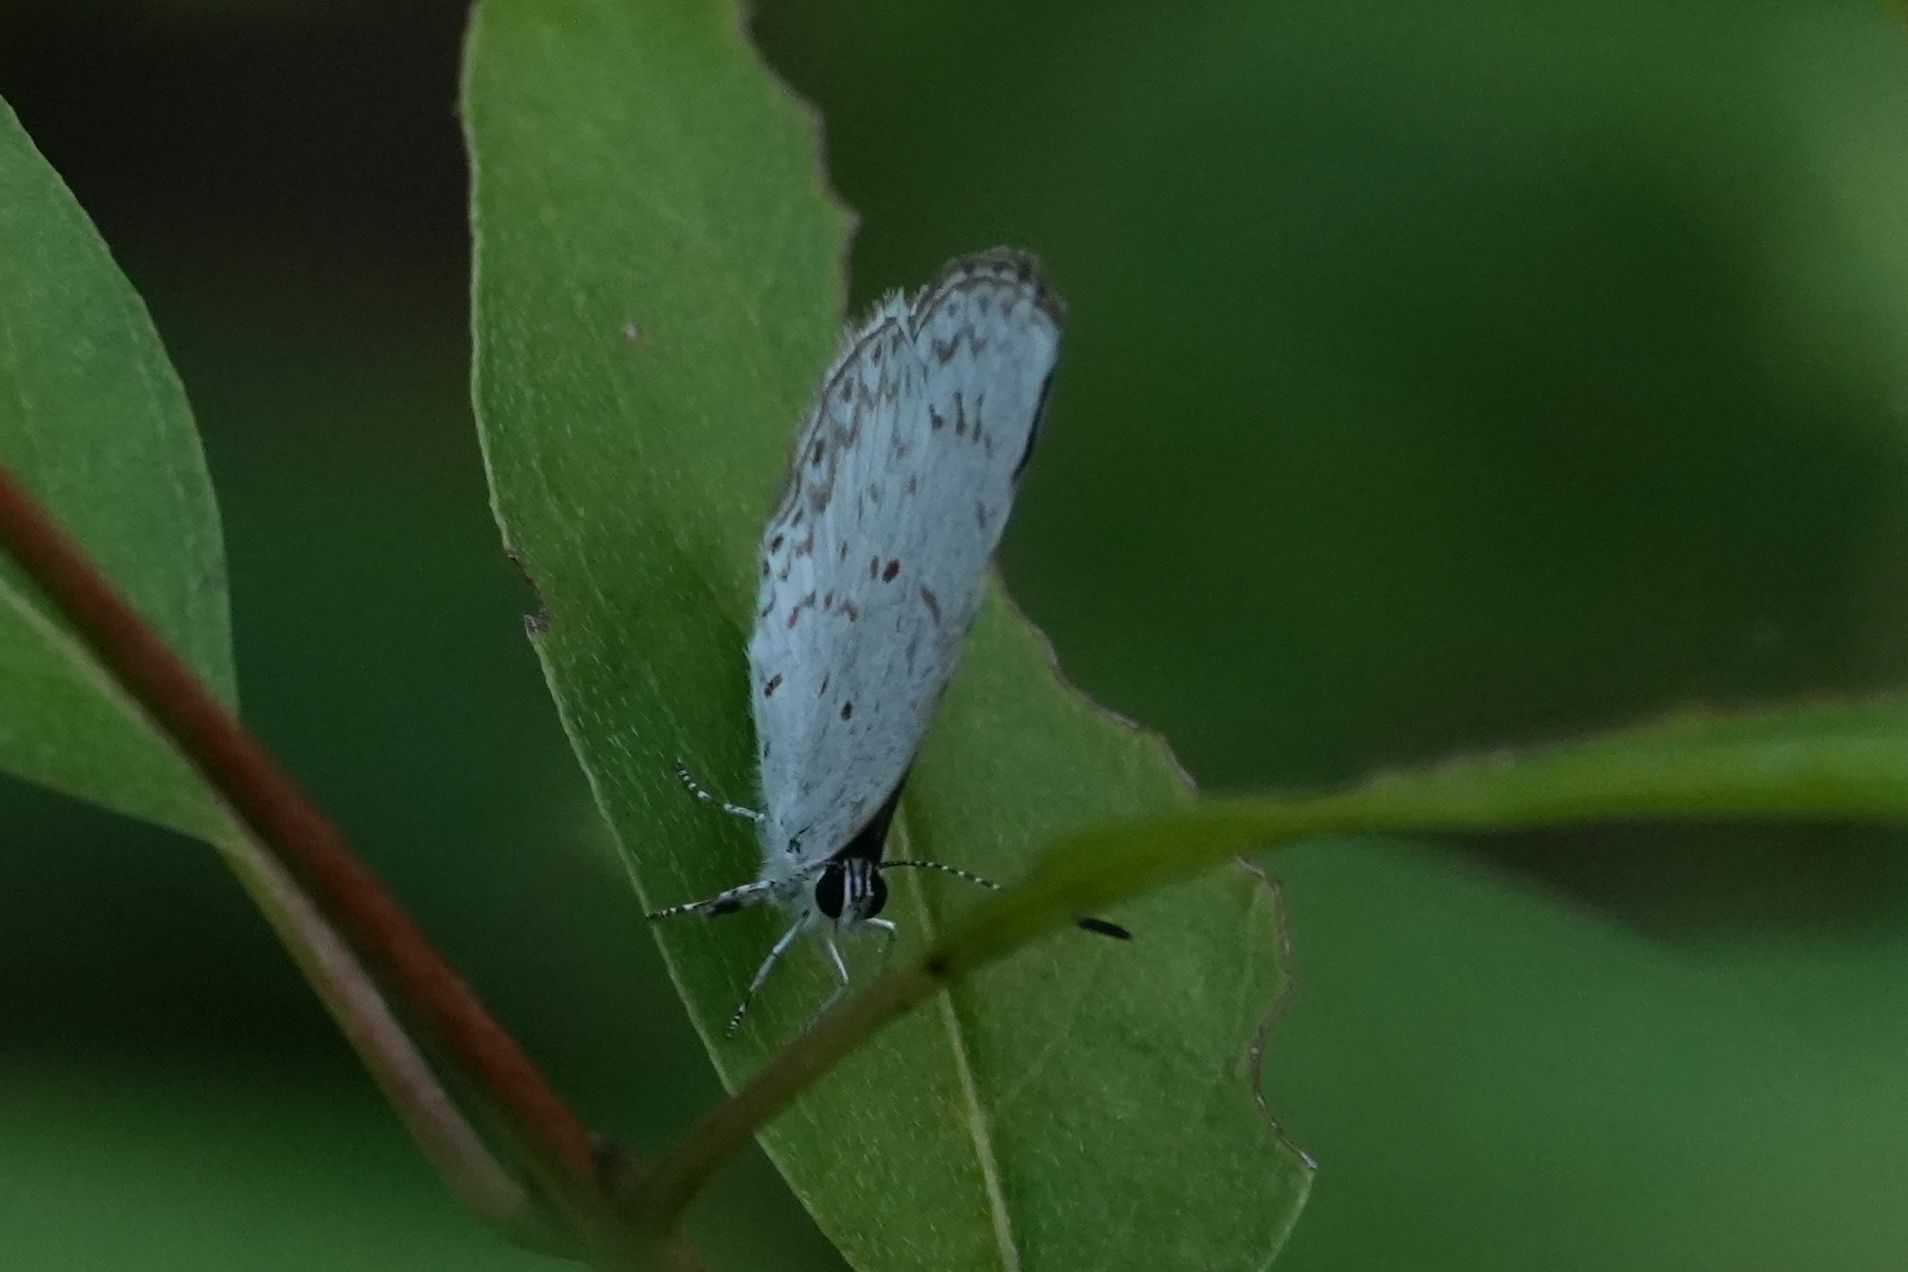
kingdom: Animalia
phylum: Arthropoda
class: Insecta
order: Lepidoptera
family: Lycaenidae
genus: Celastrina
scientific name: Celastrina lucia
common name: Lucia azure
